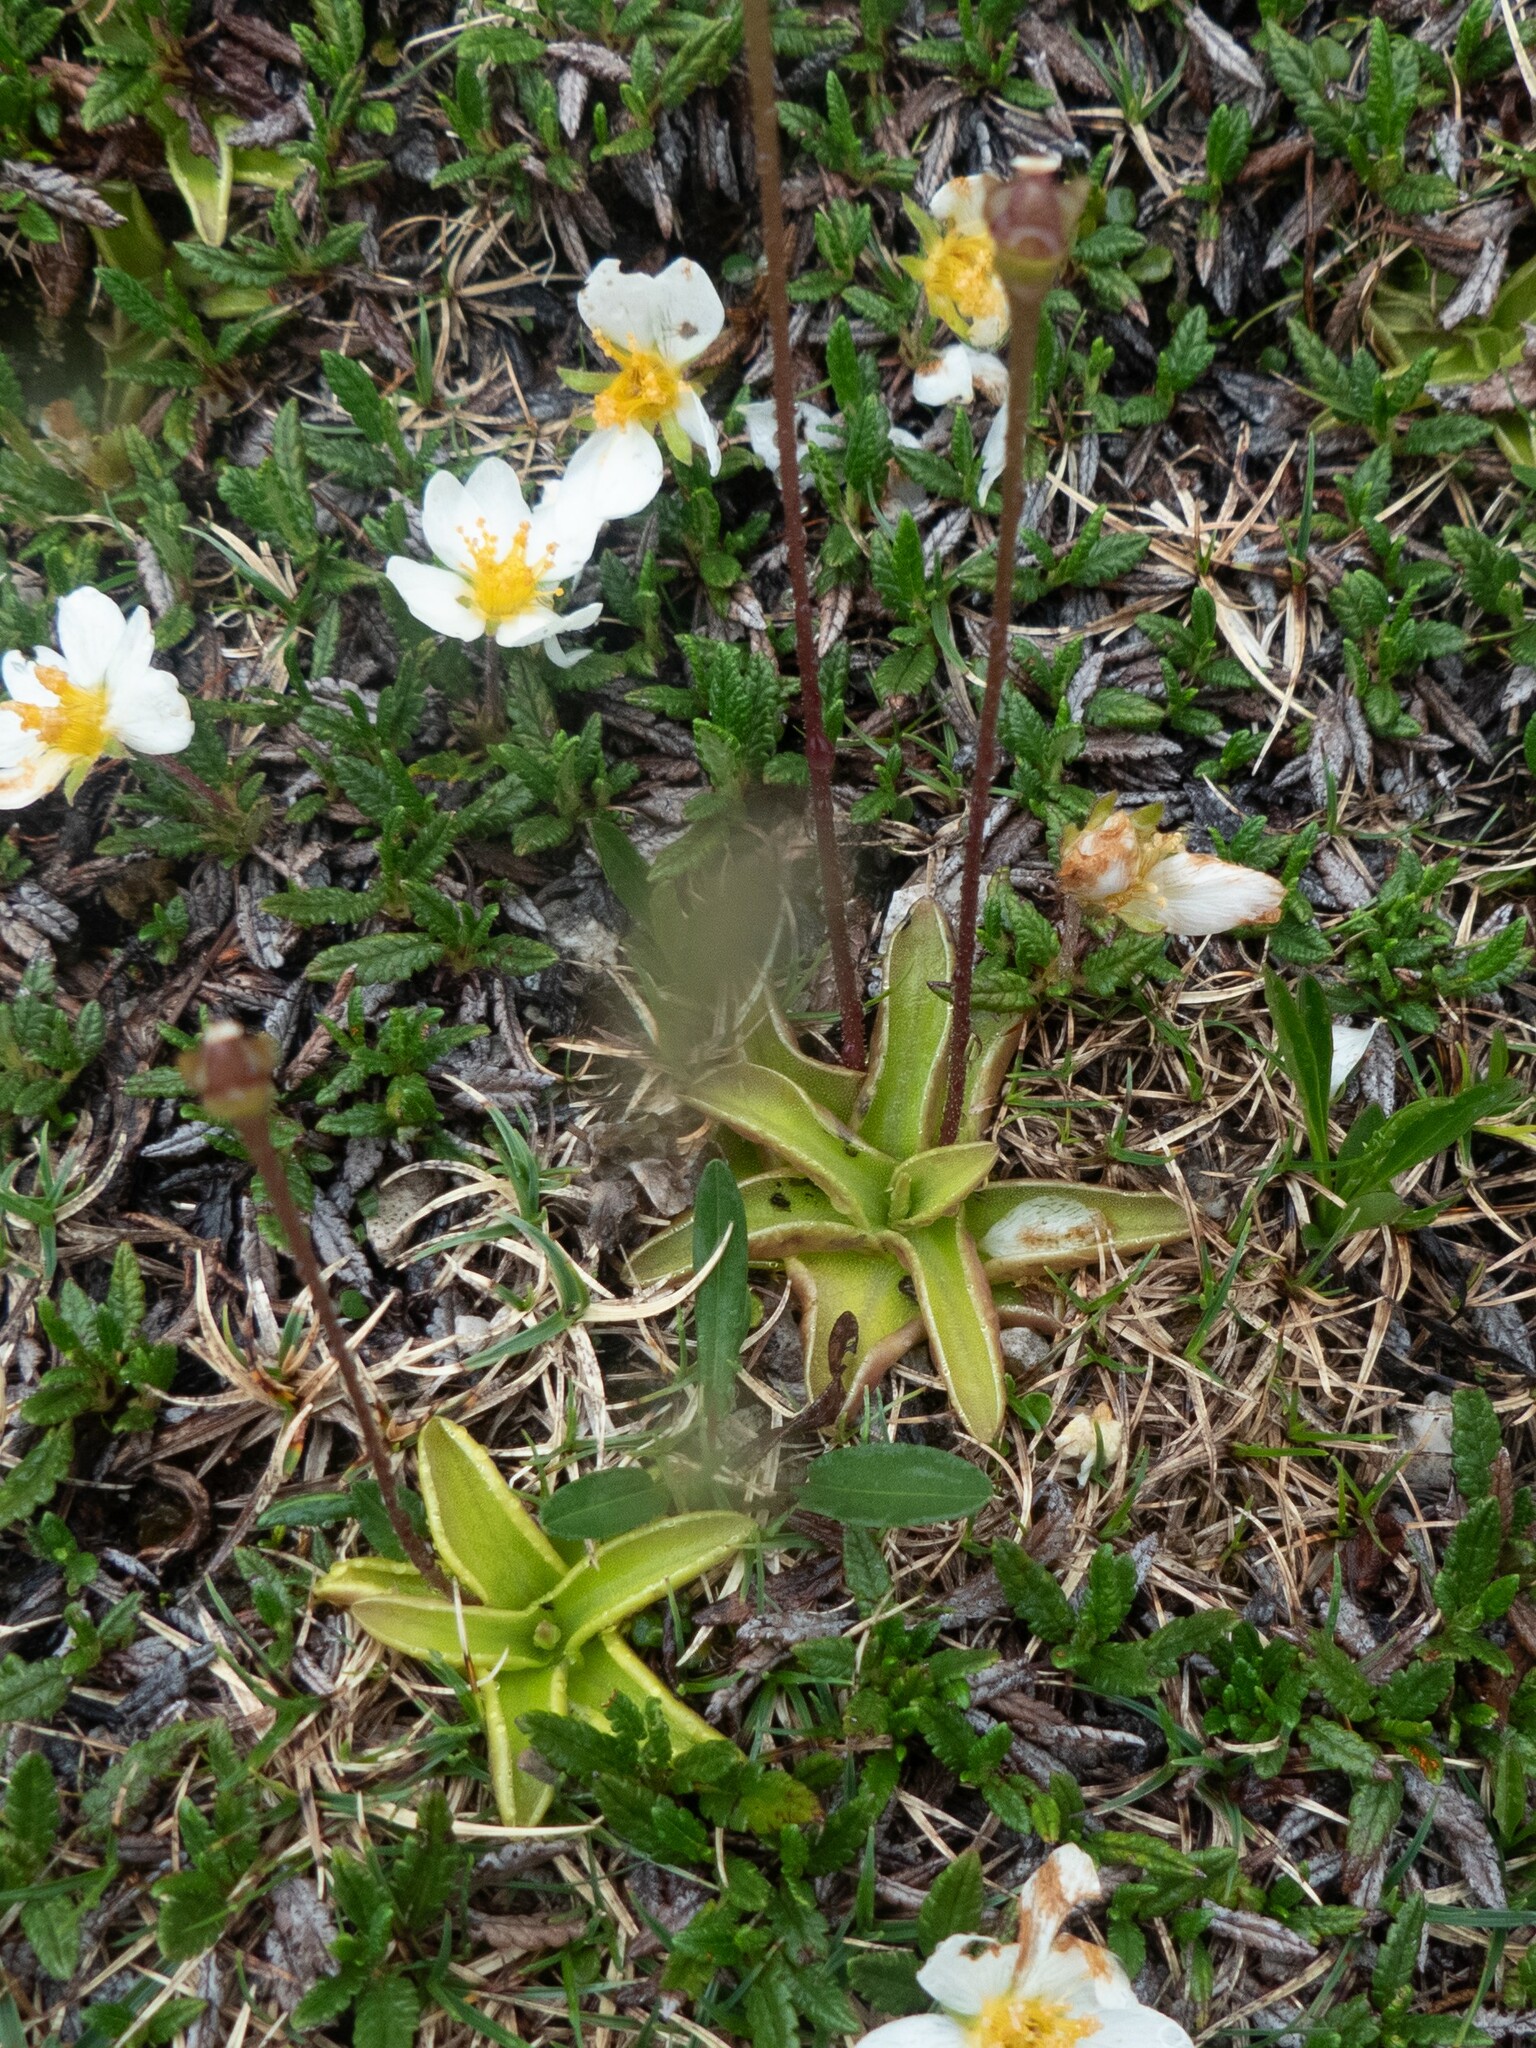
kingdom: Plantae
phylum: Tracheophyta
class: Magnoliopsida
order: Lamiales
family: Lentibulariaceae
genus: Pinguicula
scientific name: Pinguicula alpina
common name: Alpine butterwort
